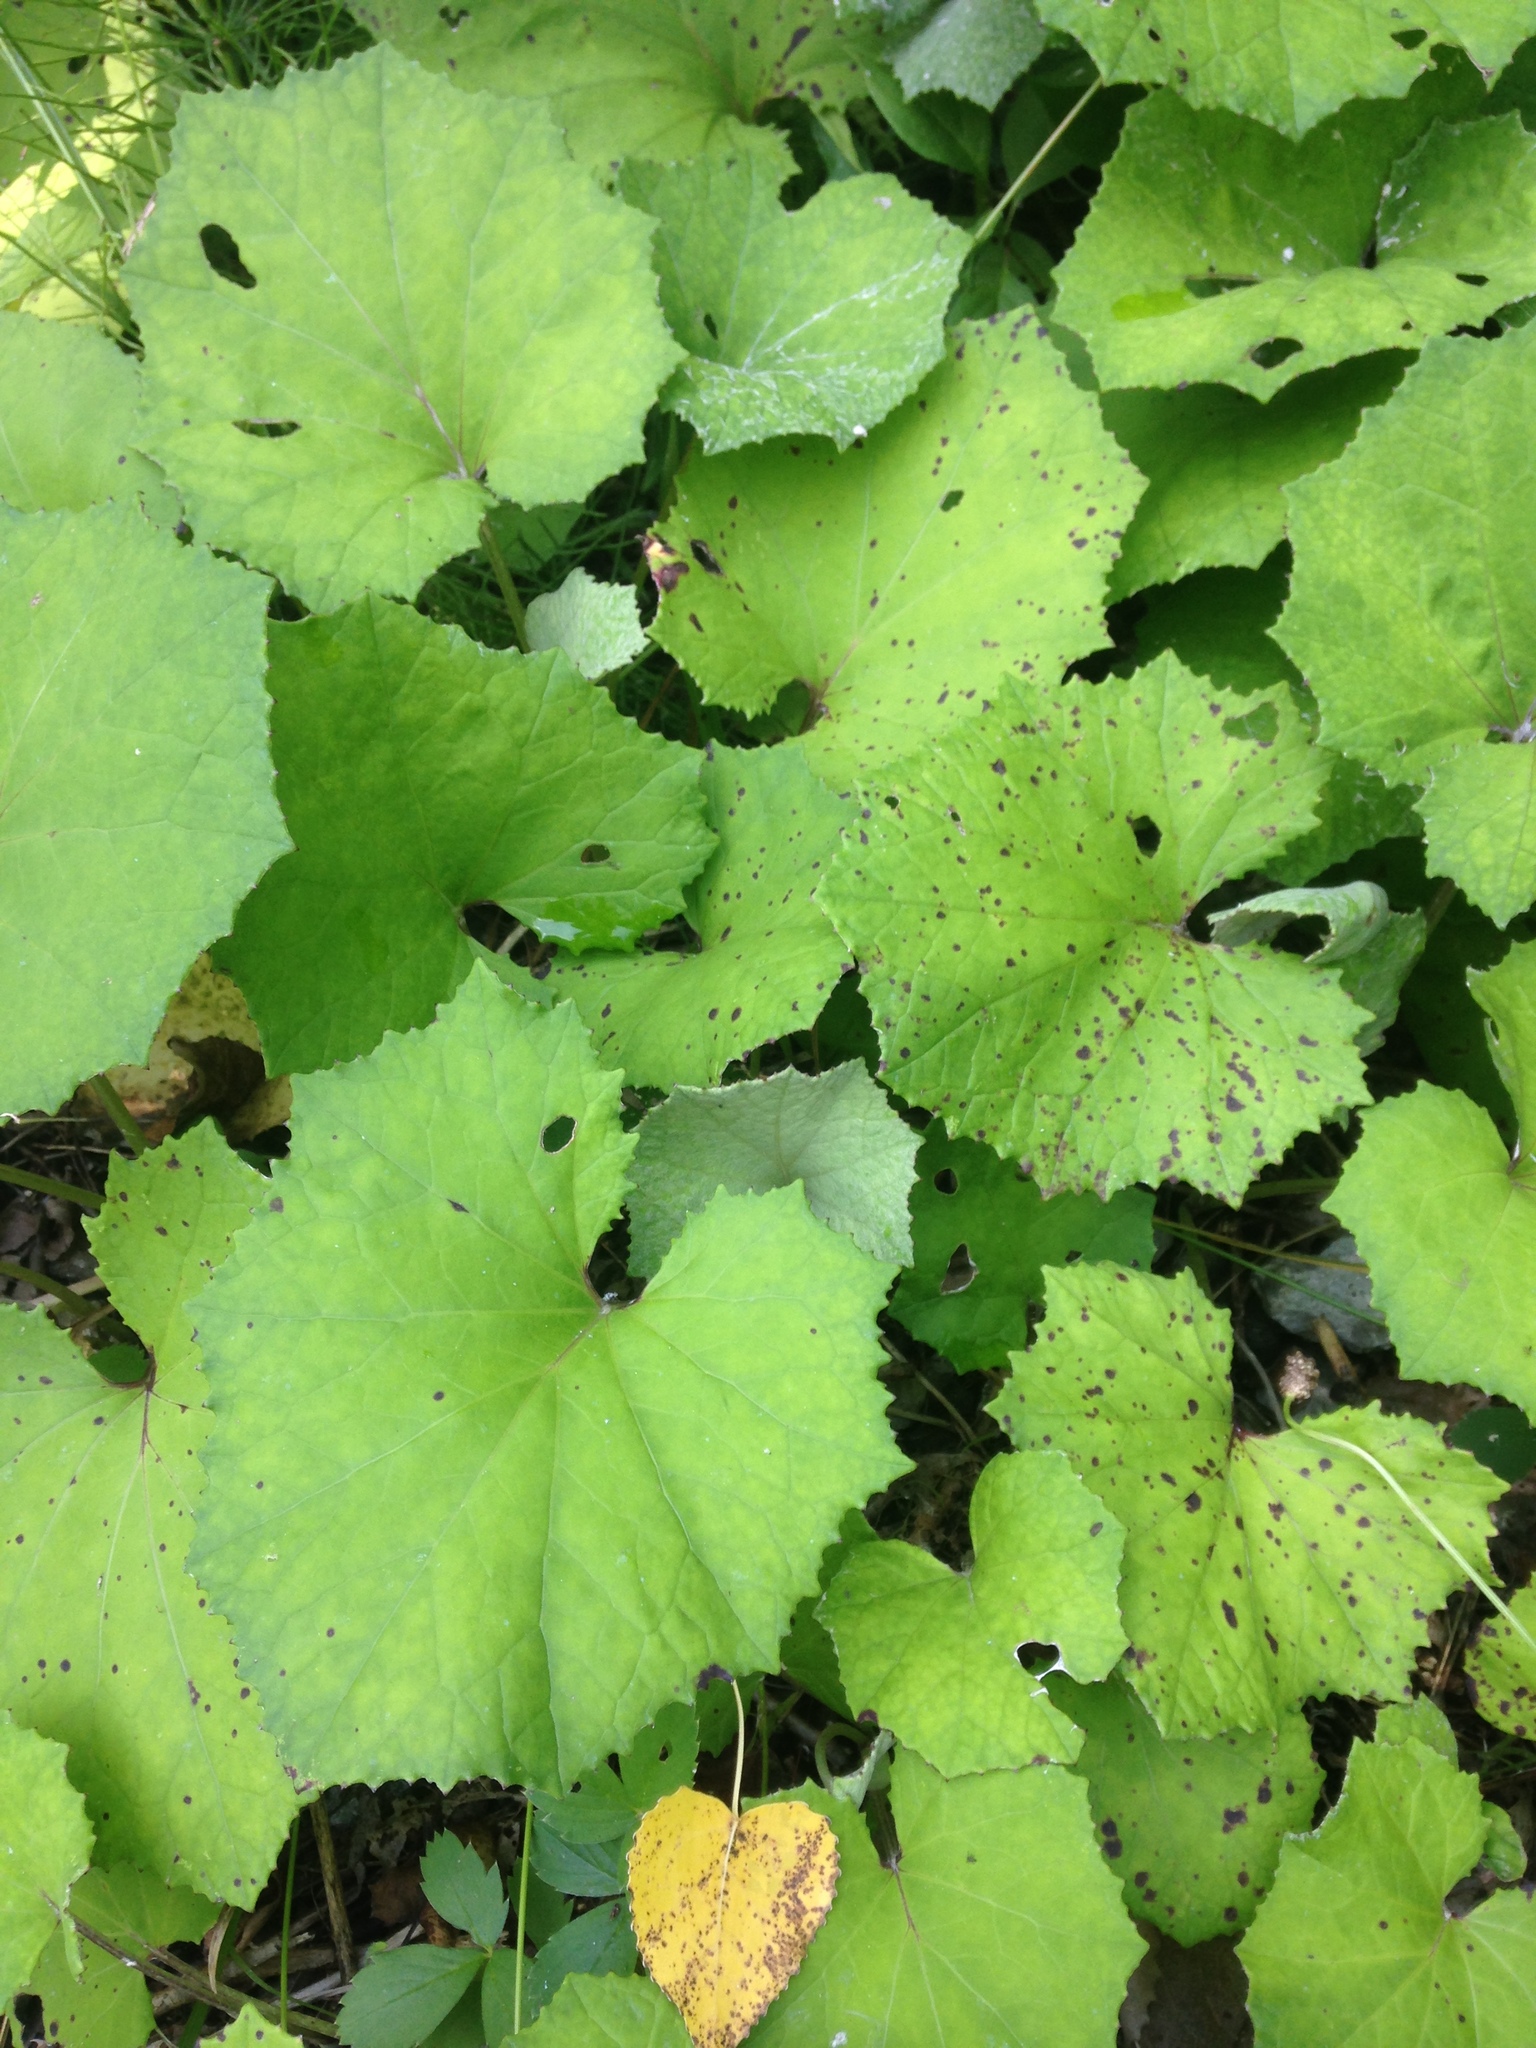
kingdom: Plantae
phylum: Tracheophyta
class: Magnoliopsida
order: Asterales
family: Asteraceae
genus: Tussilago
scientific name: Tussilago farfara
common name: Coltsfoot
